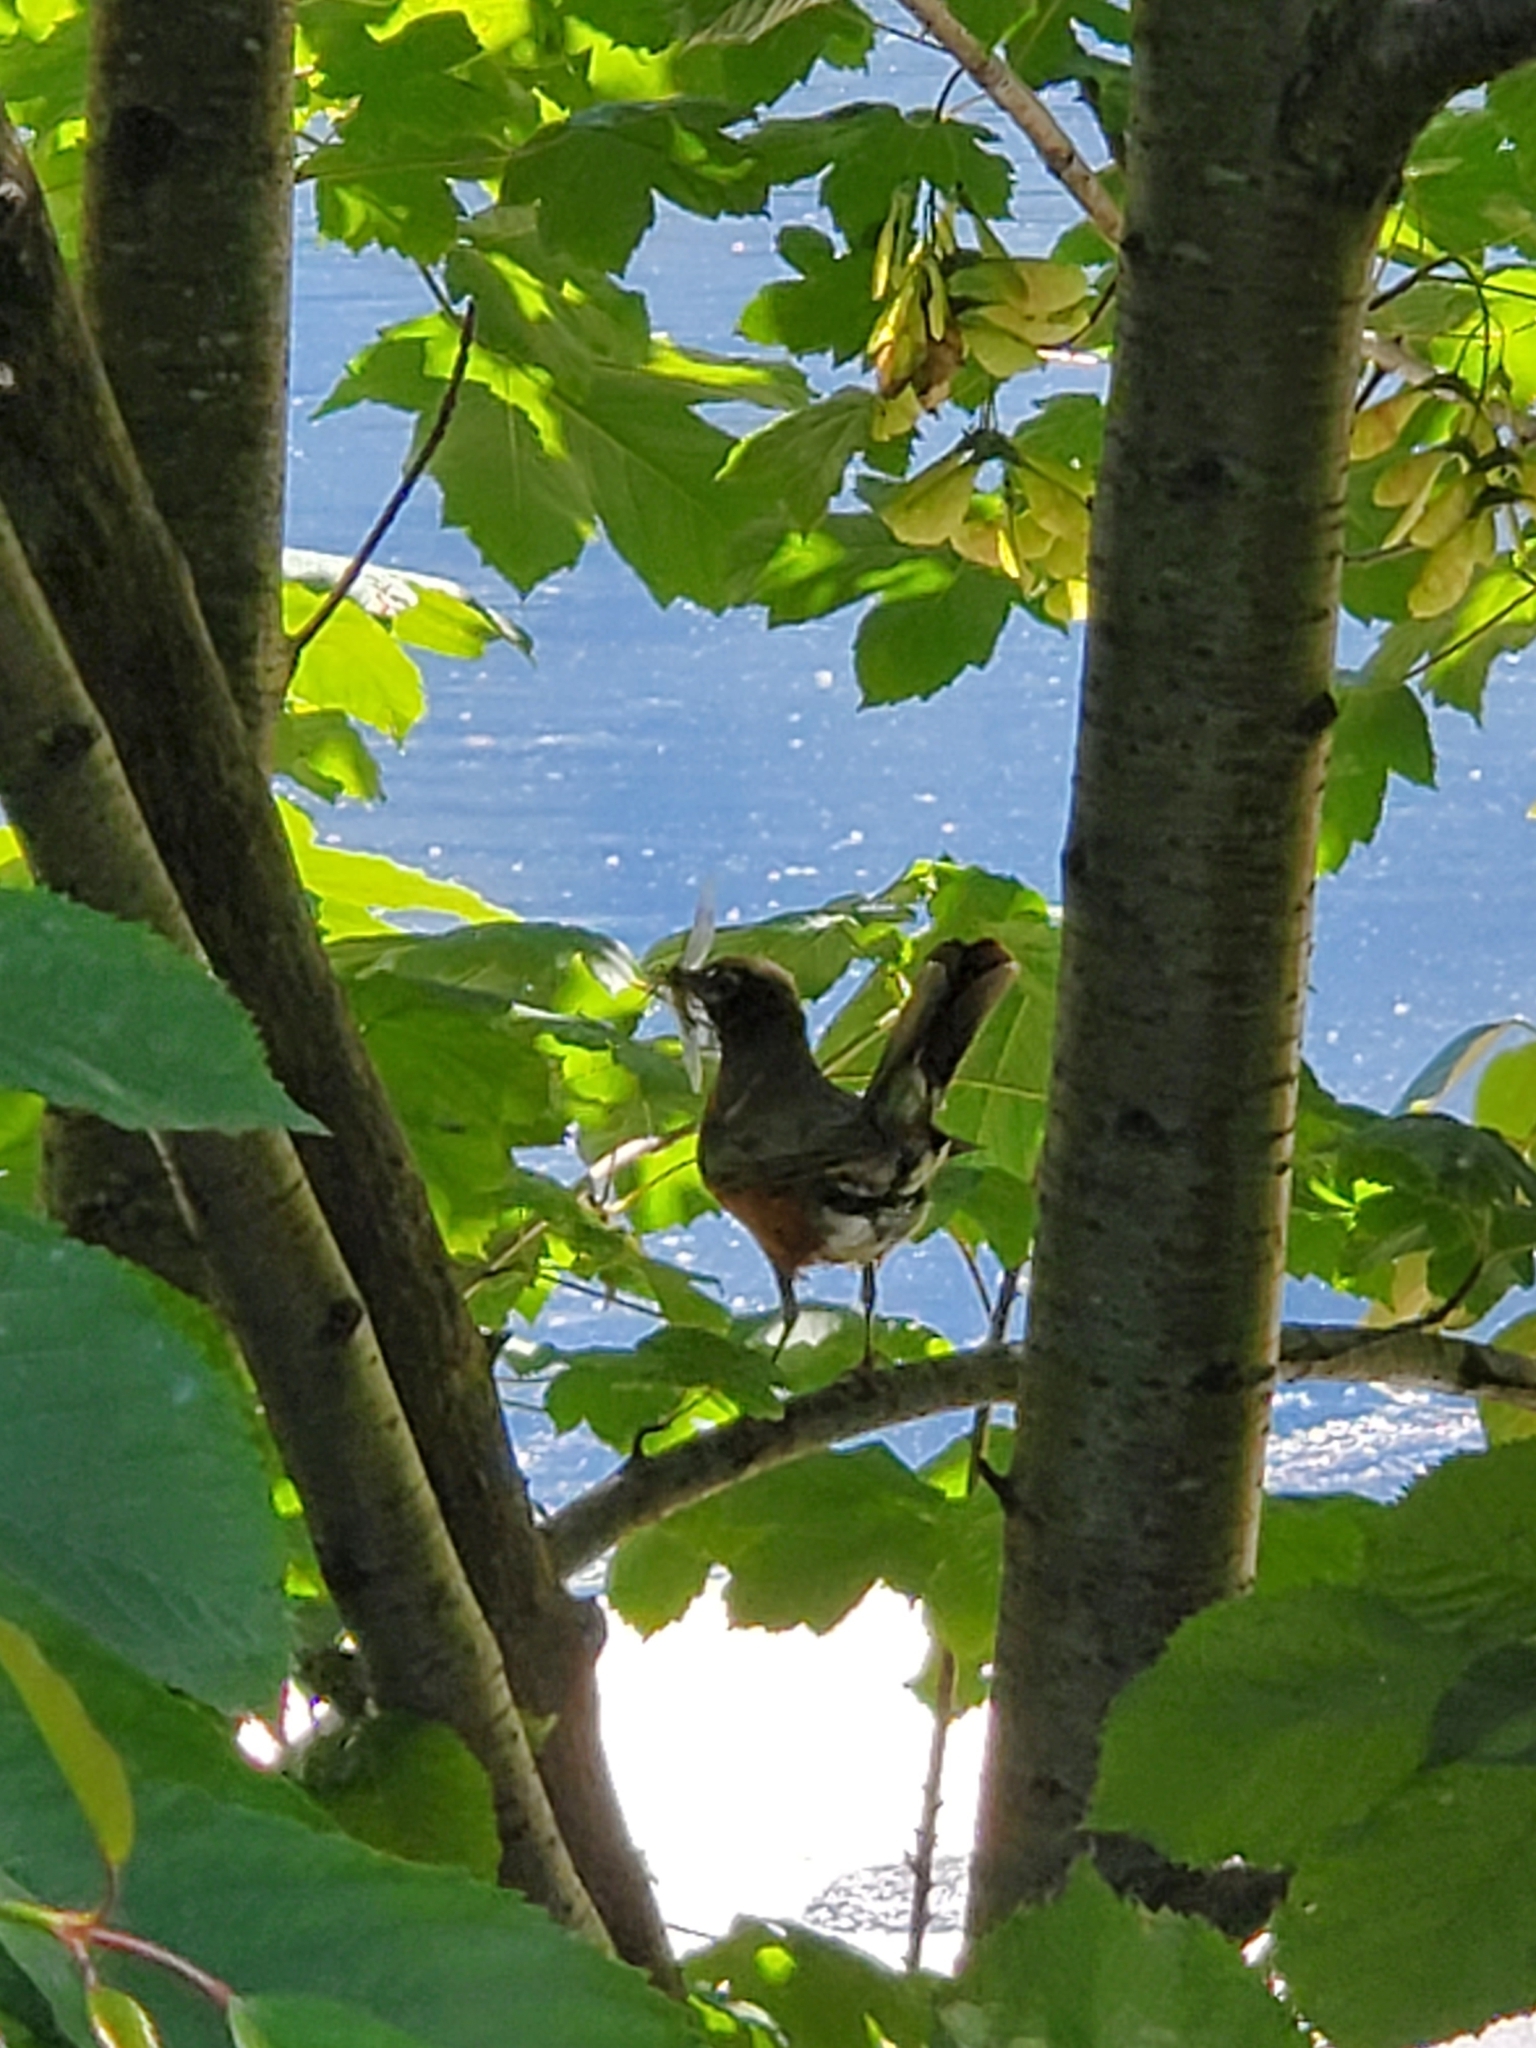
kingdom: Animalia
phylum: Chordata
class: Aves
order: Passeriformes
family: Turdidae
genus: Turdus
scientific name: Turdus migratorius
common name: American robin
